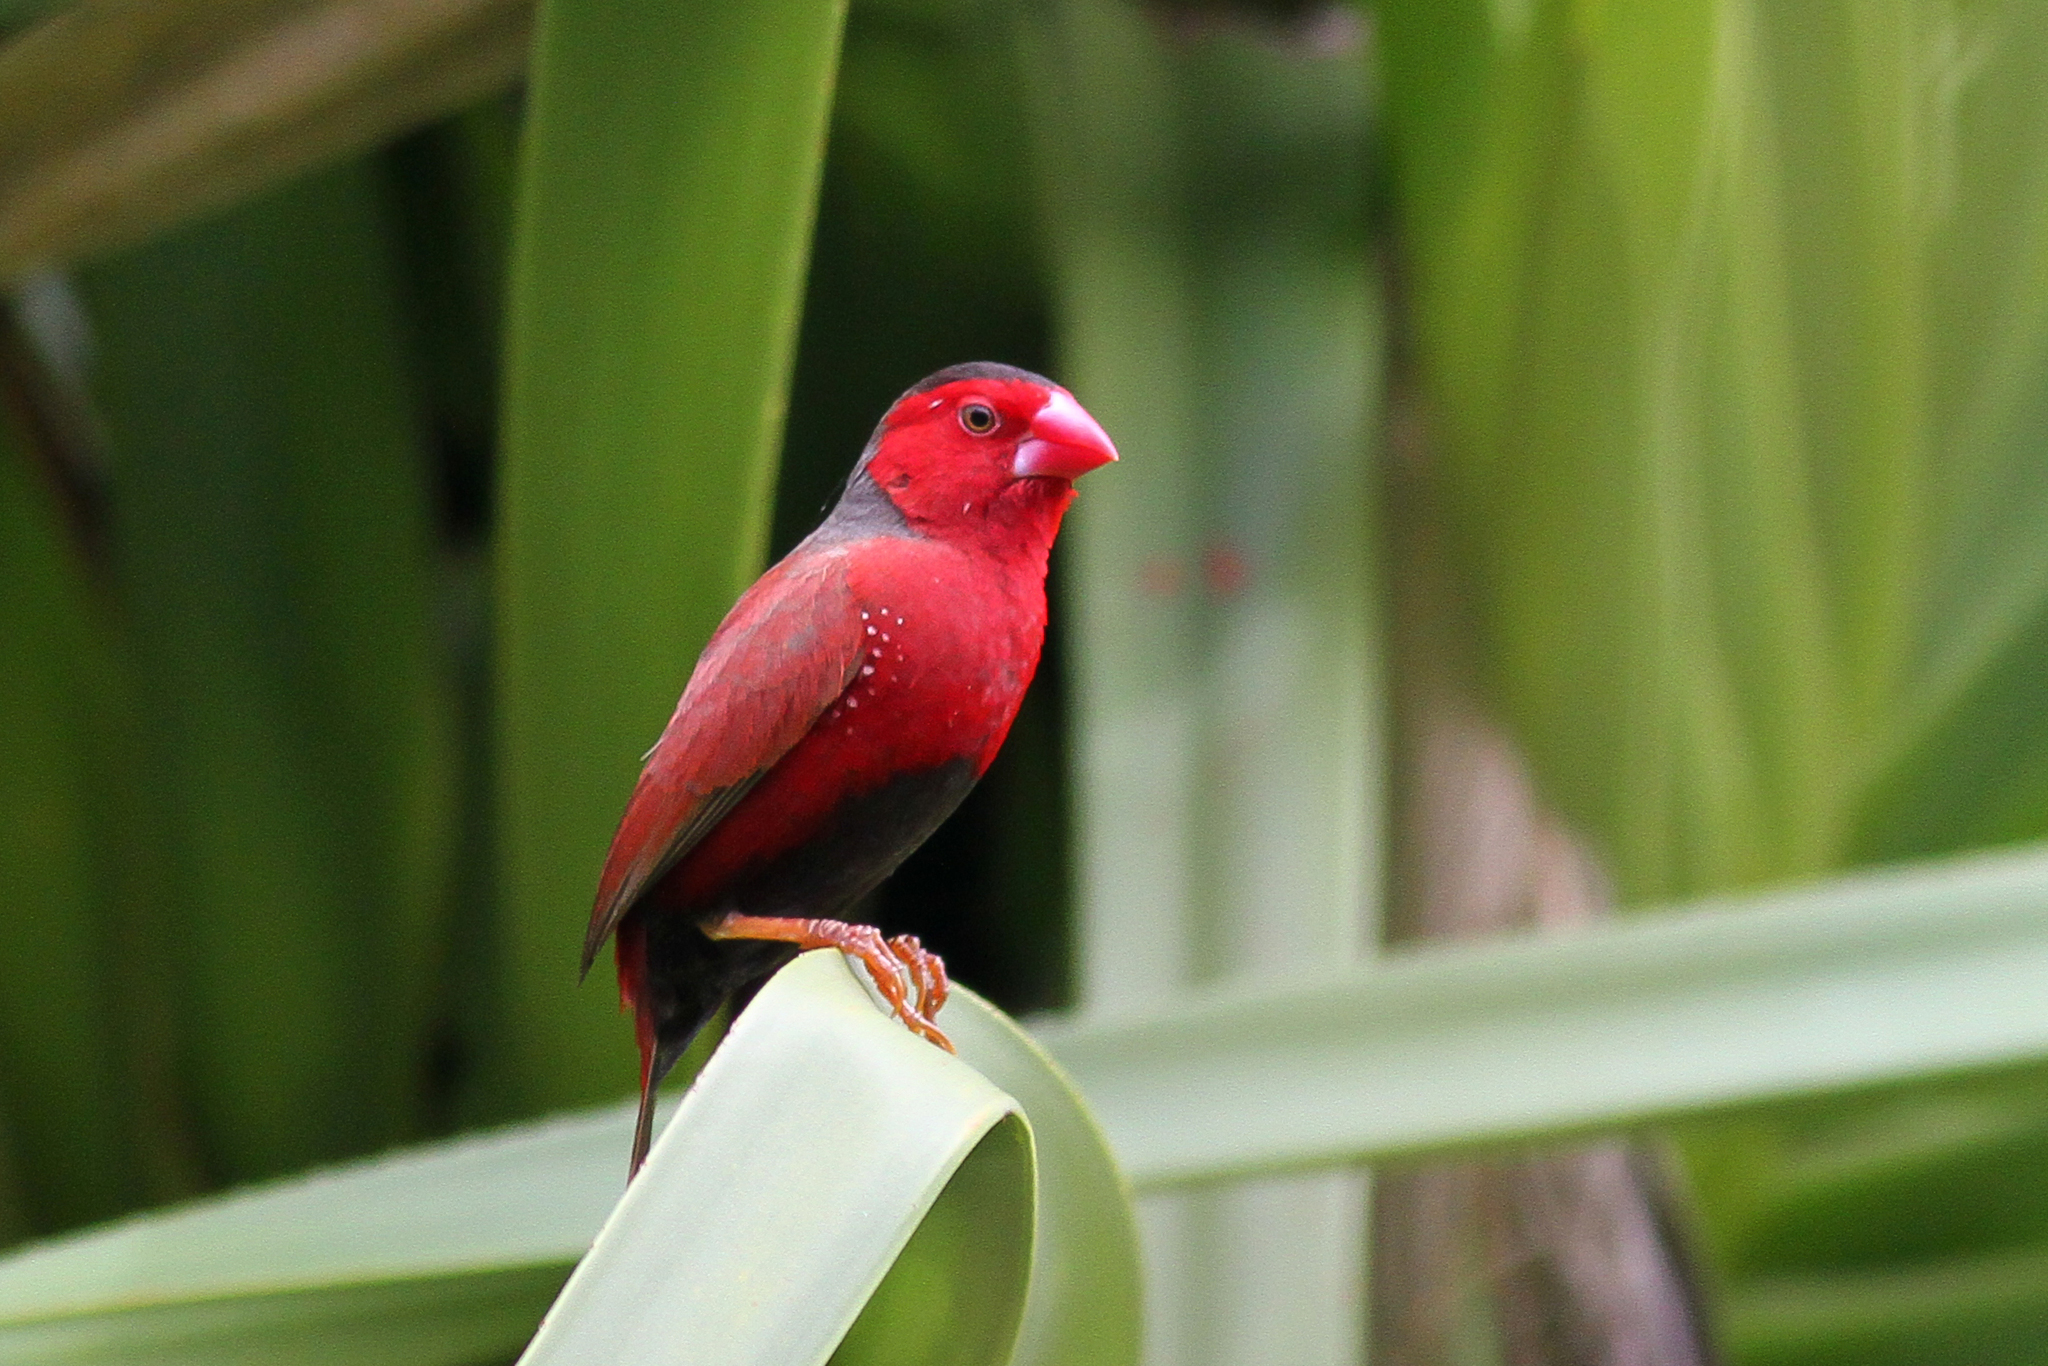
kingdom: Animalia
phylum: Chordata
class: Aves
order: Passeriformes
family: Estrildidae
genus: Neochmia
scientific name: Neochmia phaeton
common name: Crimson finch
